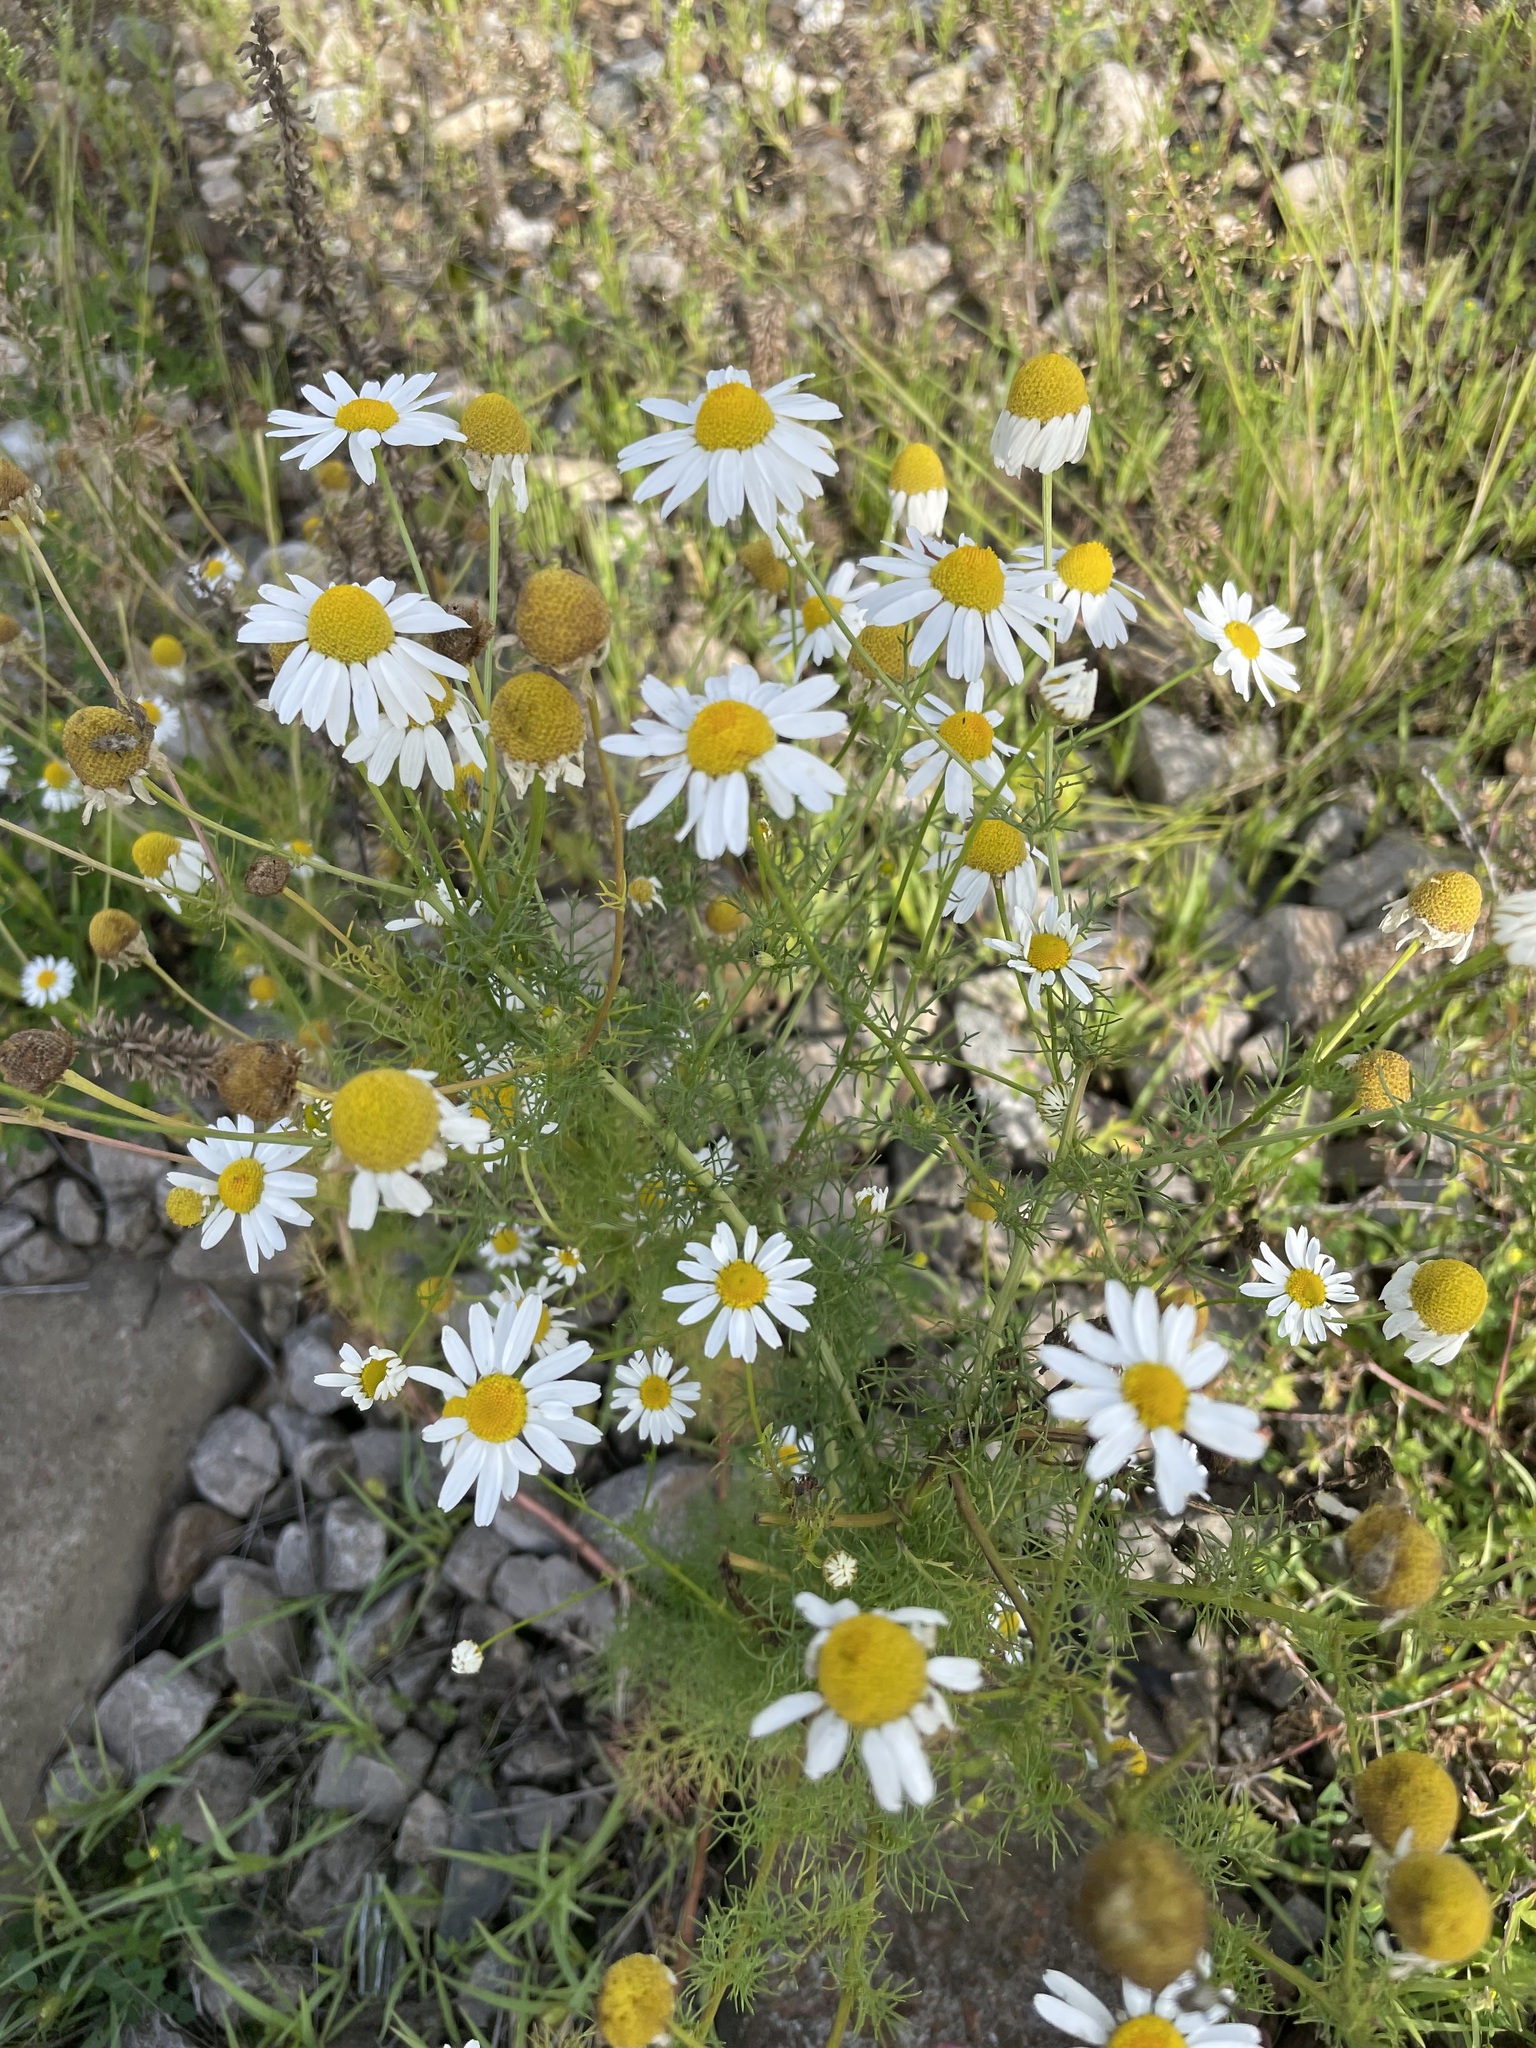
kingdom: Plantae
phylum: Tracheophyta
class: Magnoliopsida
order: Asterales
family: Asteraceae
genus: Tripleurospermum
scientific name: Tripleurospermum inodorum
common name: Scentless mayweed
